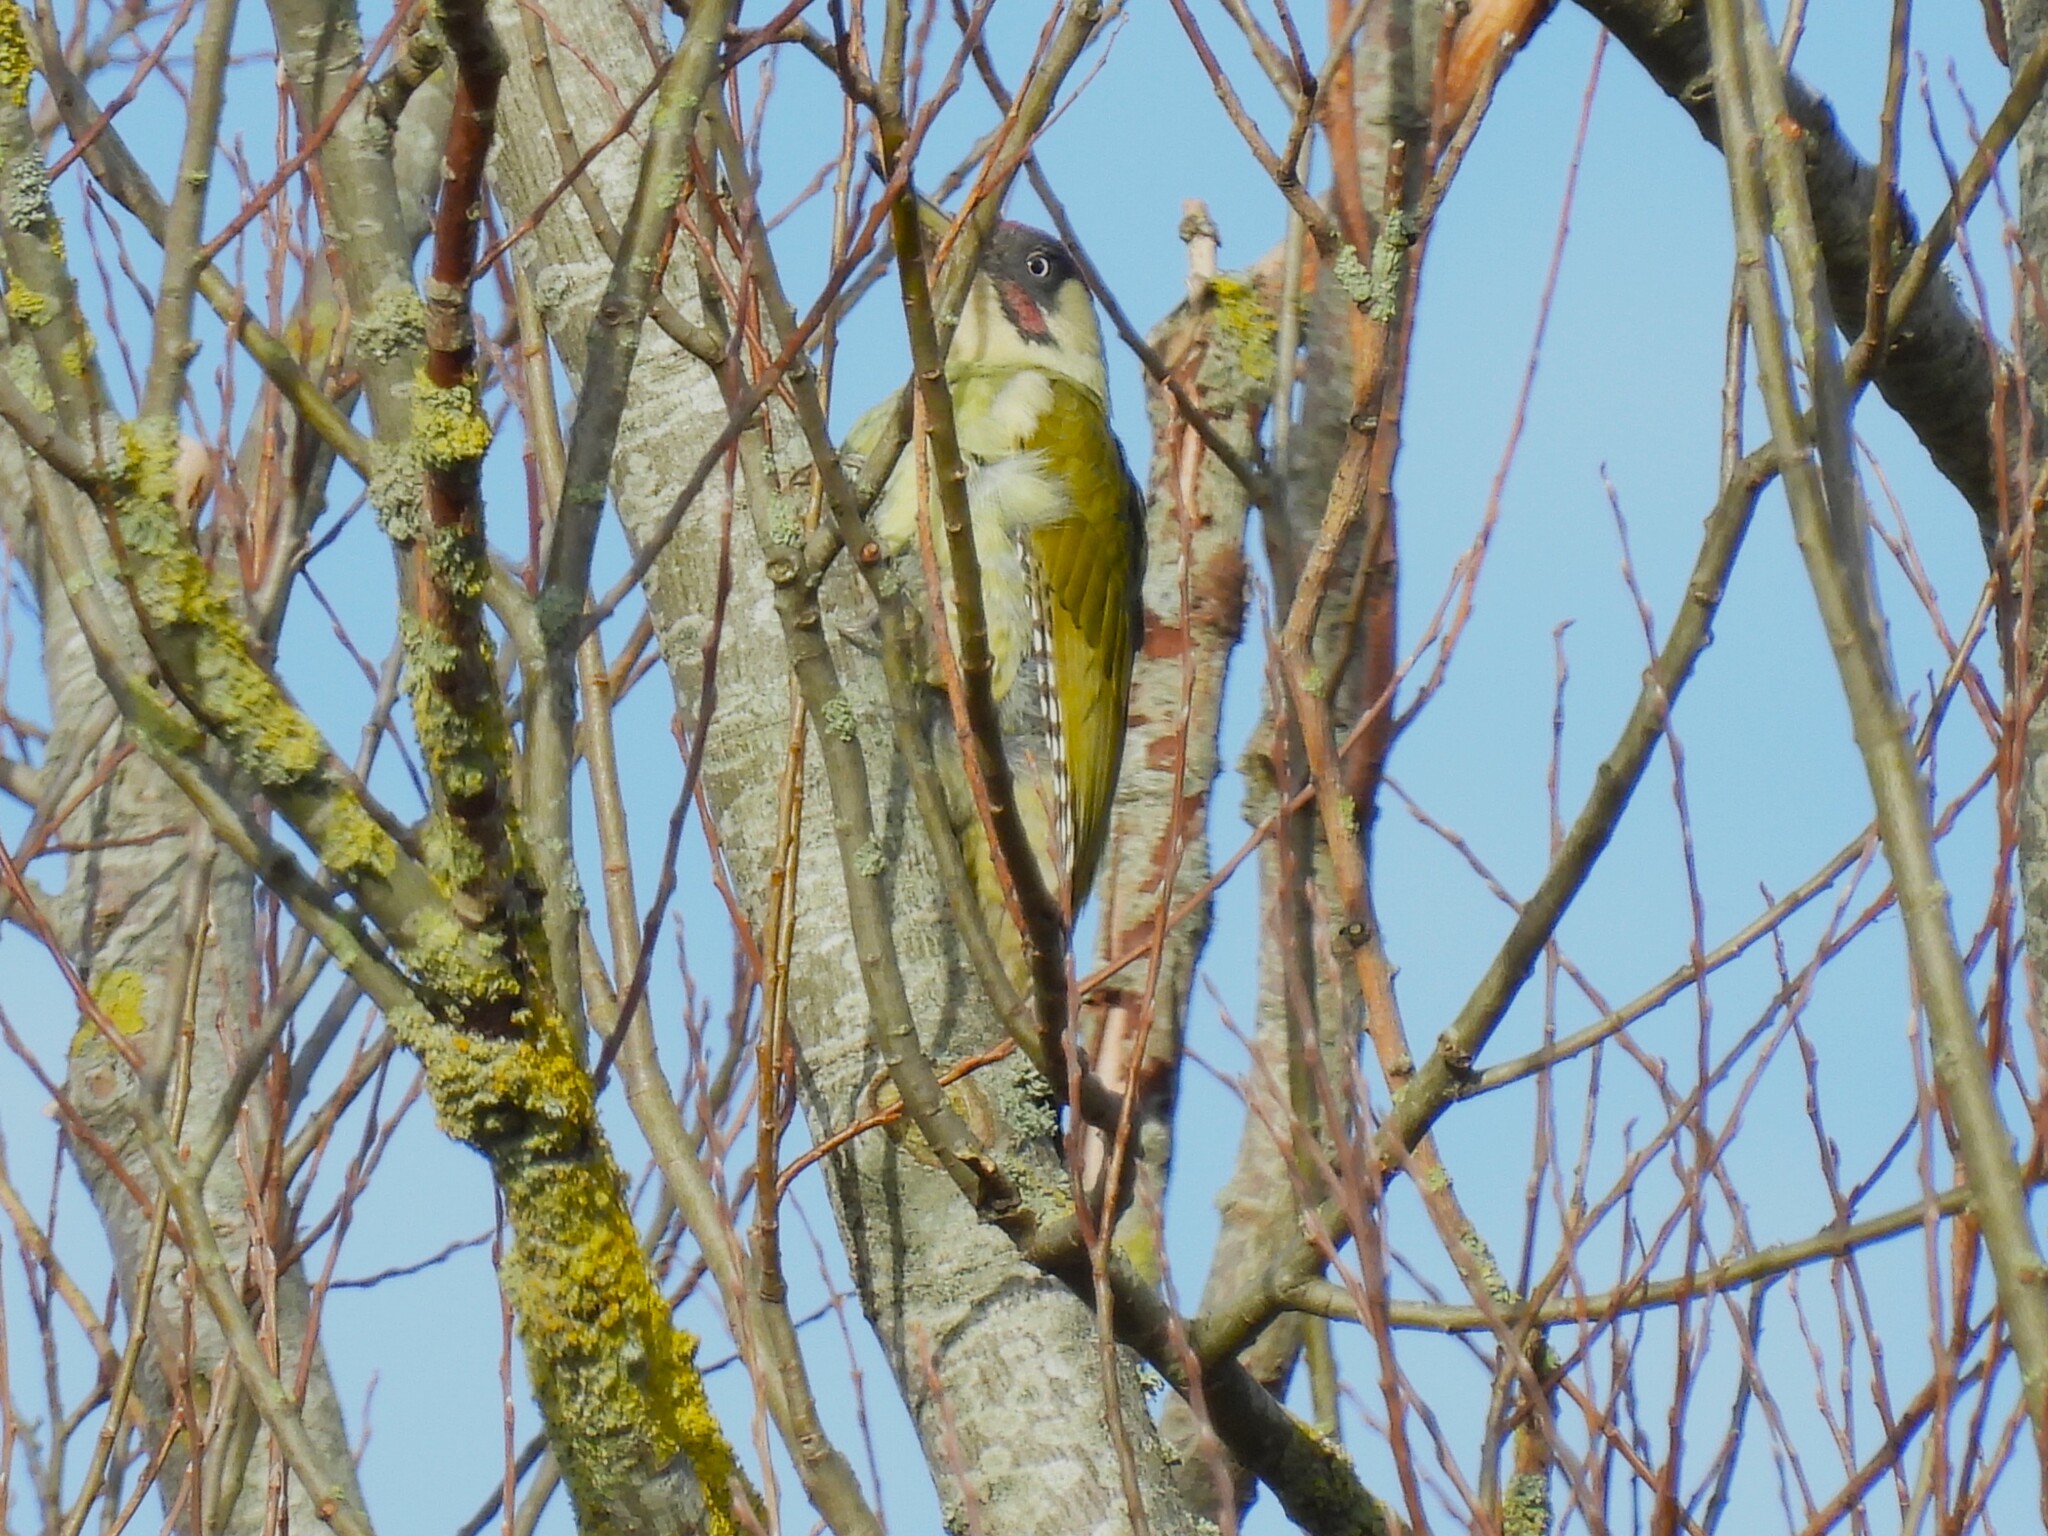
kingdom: Animalia
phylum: Chordata
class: Aves
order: Piciformes
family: Picidae
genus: Picus
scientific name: Picus viridis
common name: European green woodpecker
